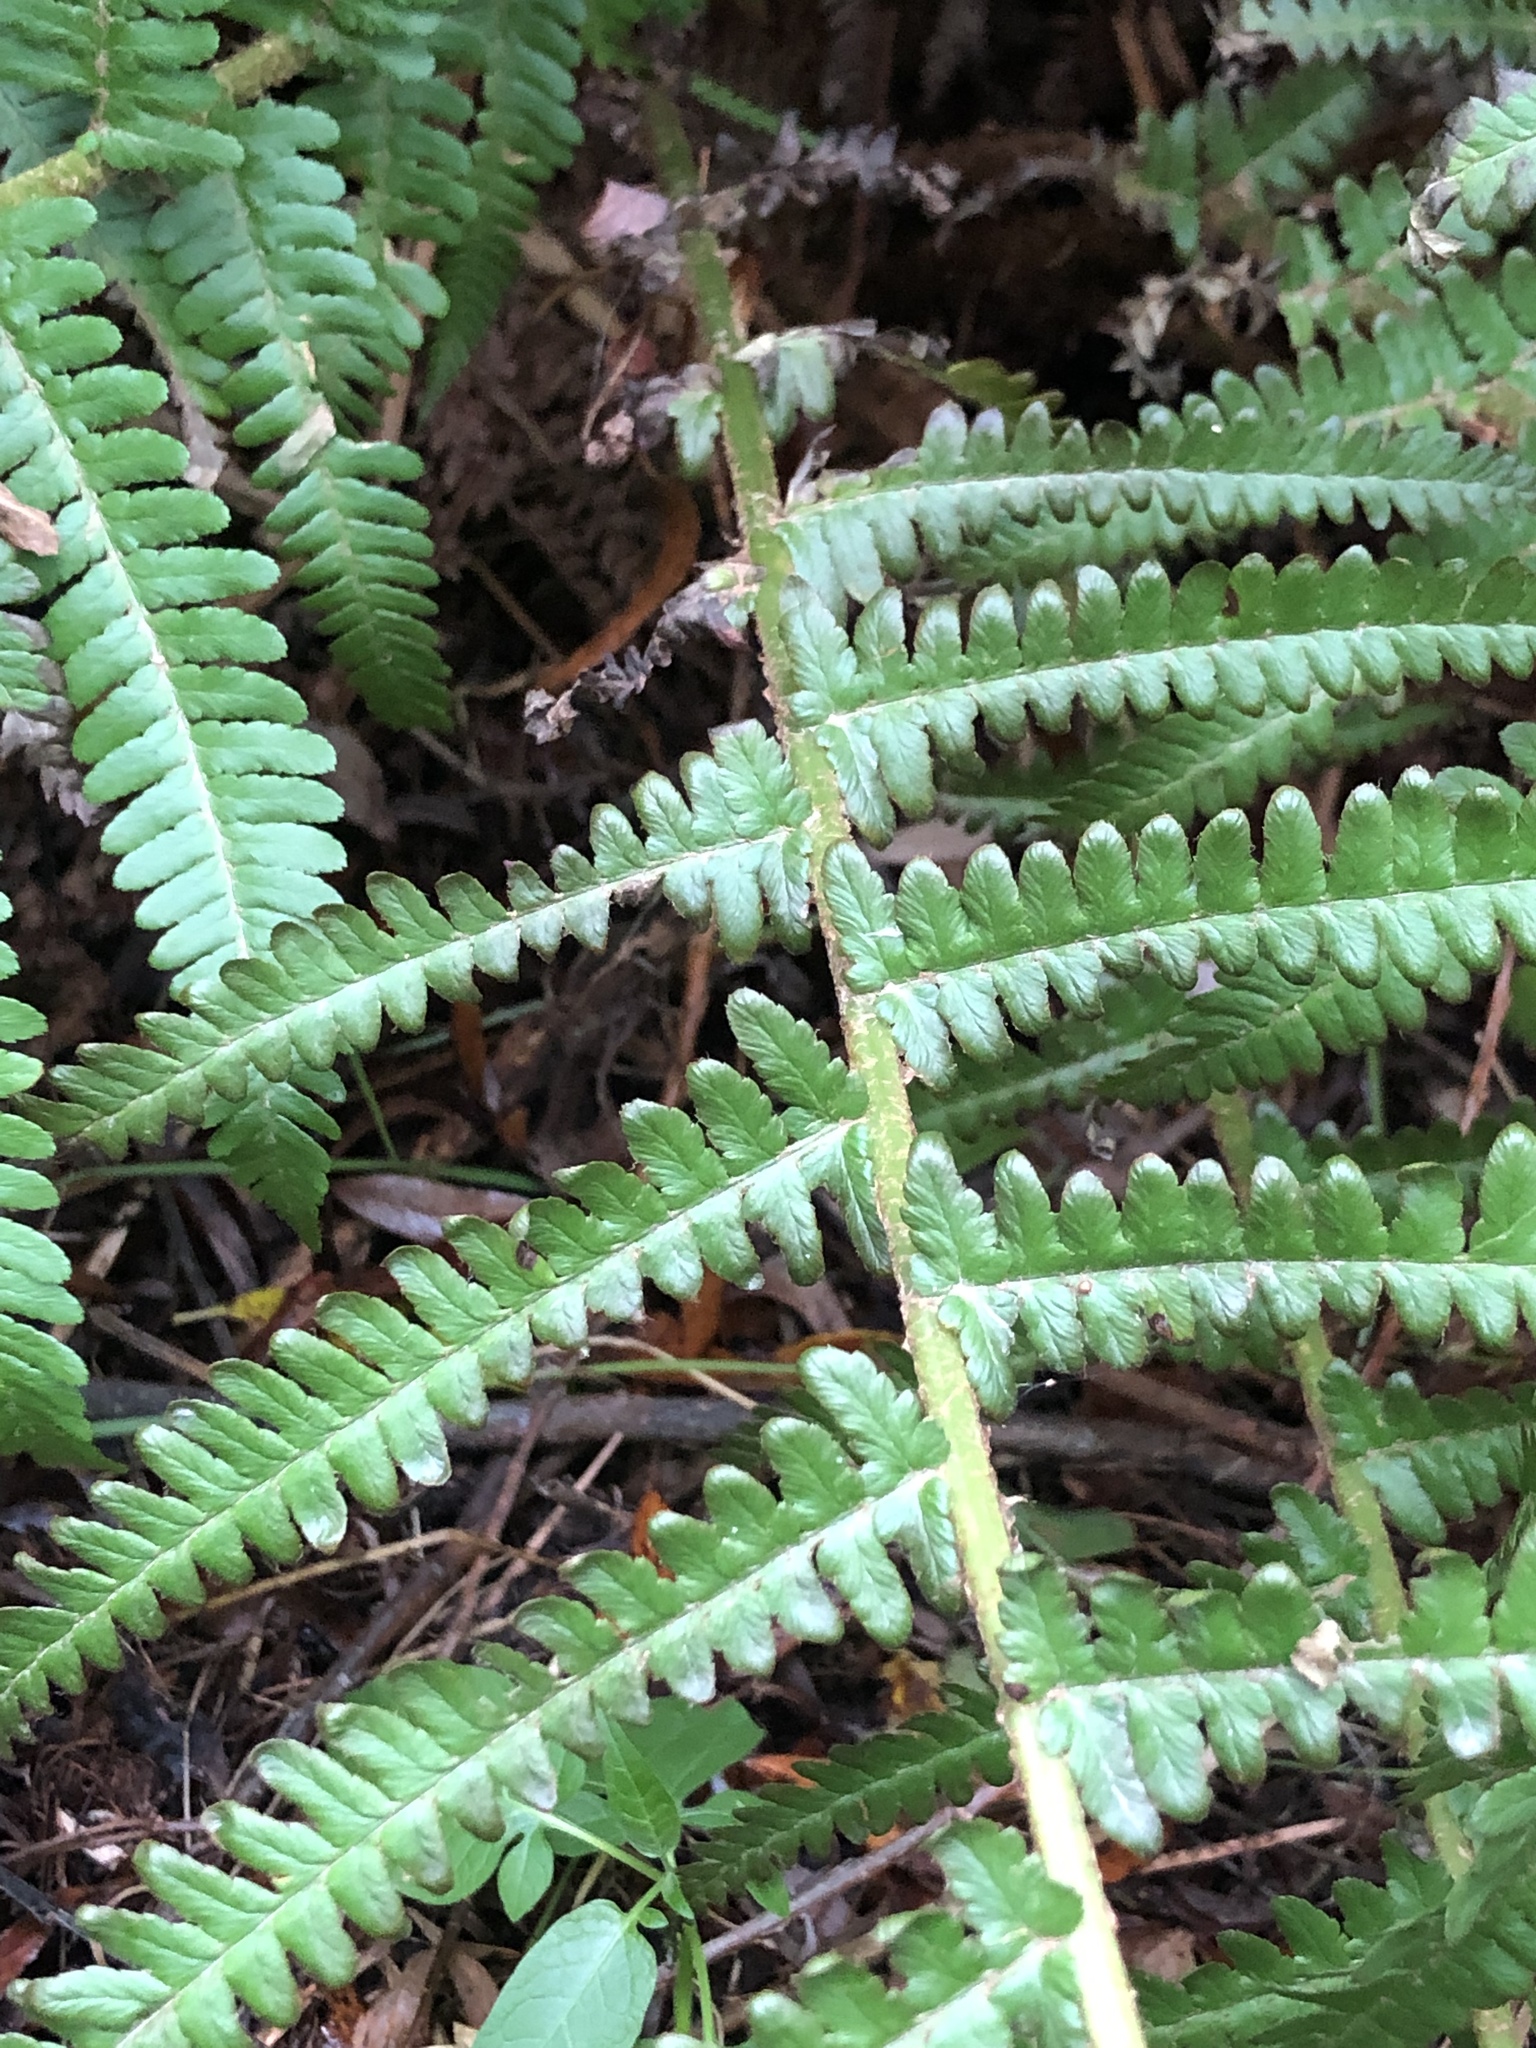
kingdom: Plantae
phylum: Tracheophyta
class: Polypodiopsida
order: Polypodiales
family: Dryopteridaceae
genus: Dryopteris
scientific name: Dryopteris filix-mas
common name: Male fern
